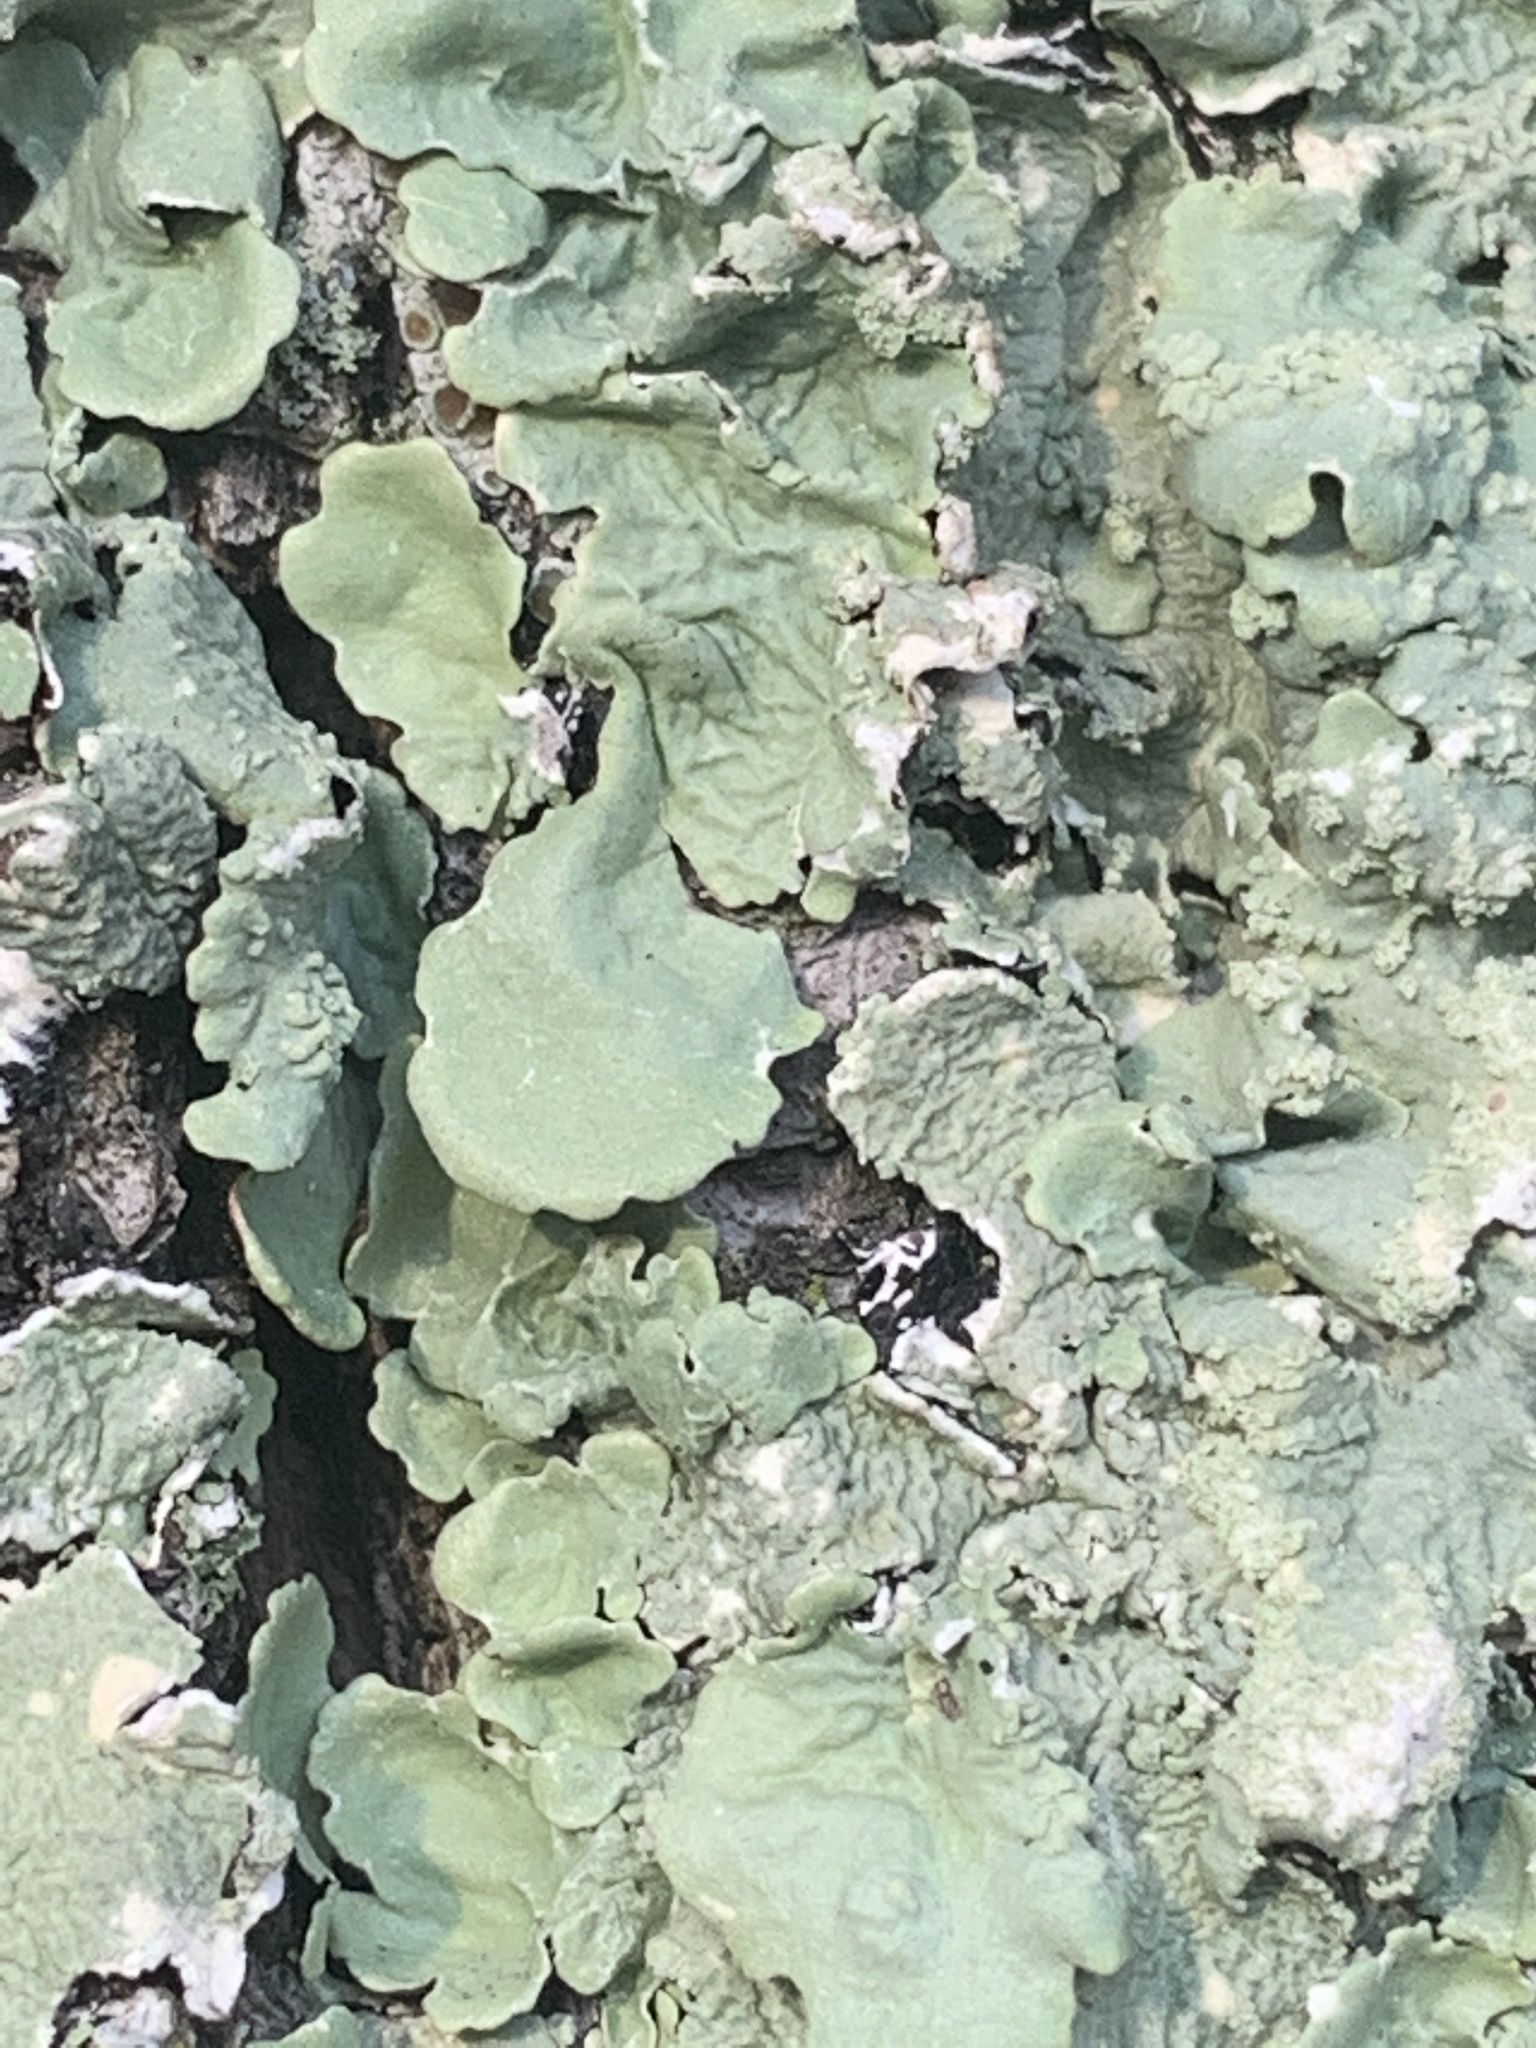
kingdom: Fungi
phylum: Ascomycota
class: Lecanoromycetes
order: Lecanorales
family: Parmeliaceae
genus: Flavoparmelia
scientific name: Flavoparmelia caperata
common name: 40-mile per hour lichen
